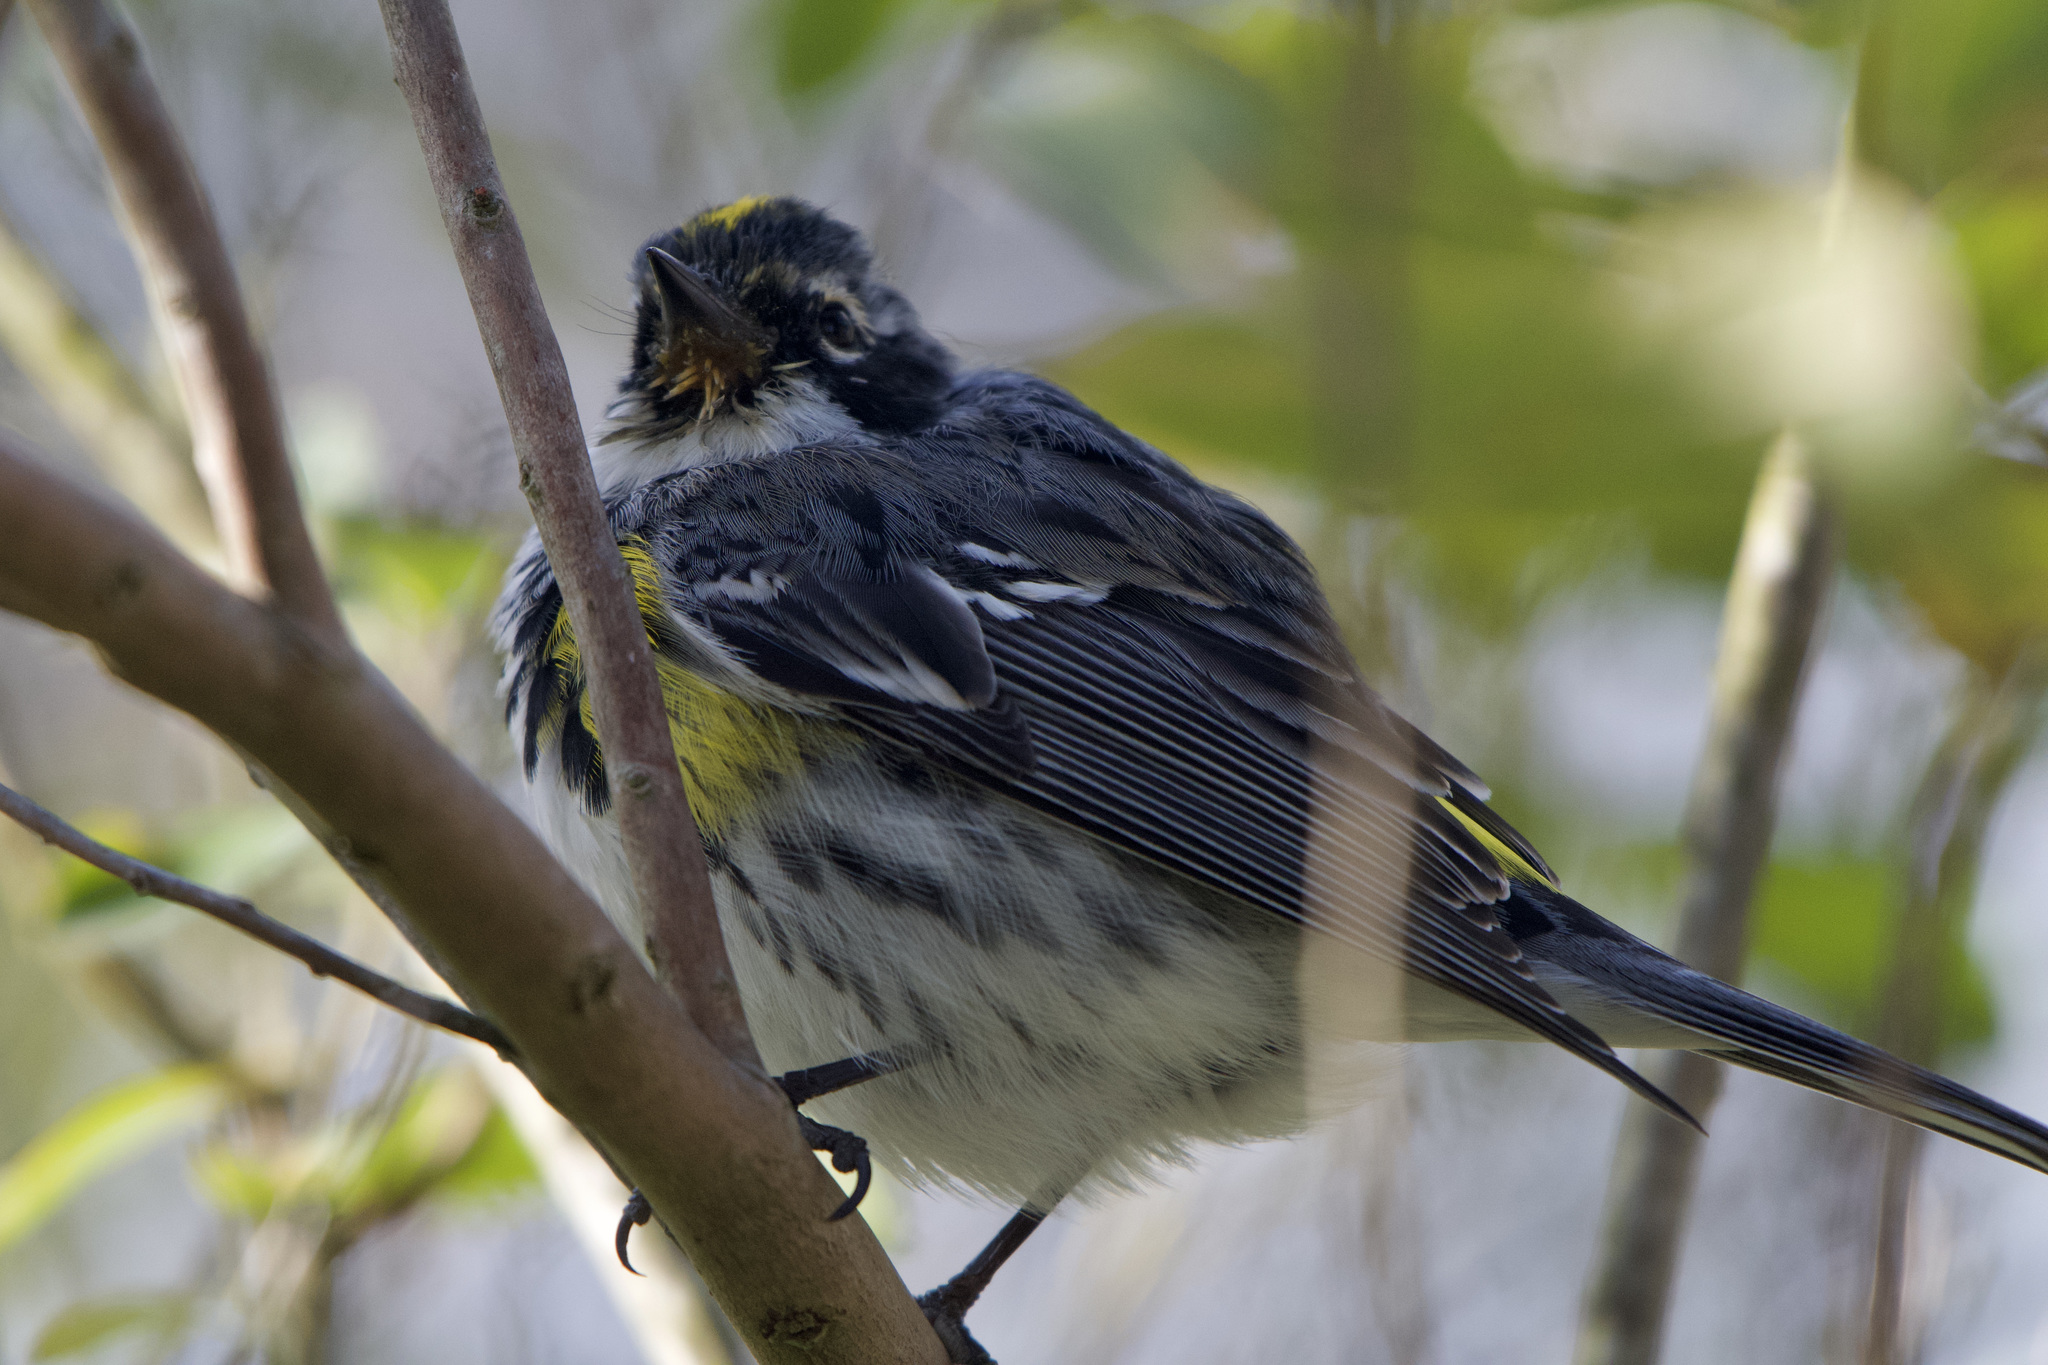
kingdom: Animalia
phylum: Chordata
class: Aves
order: Passeriformes
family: Parulidae
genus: Setophaga
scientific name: Setophaga
